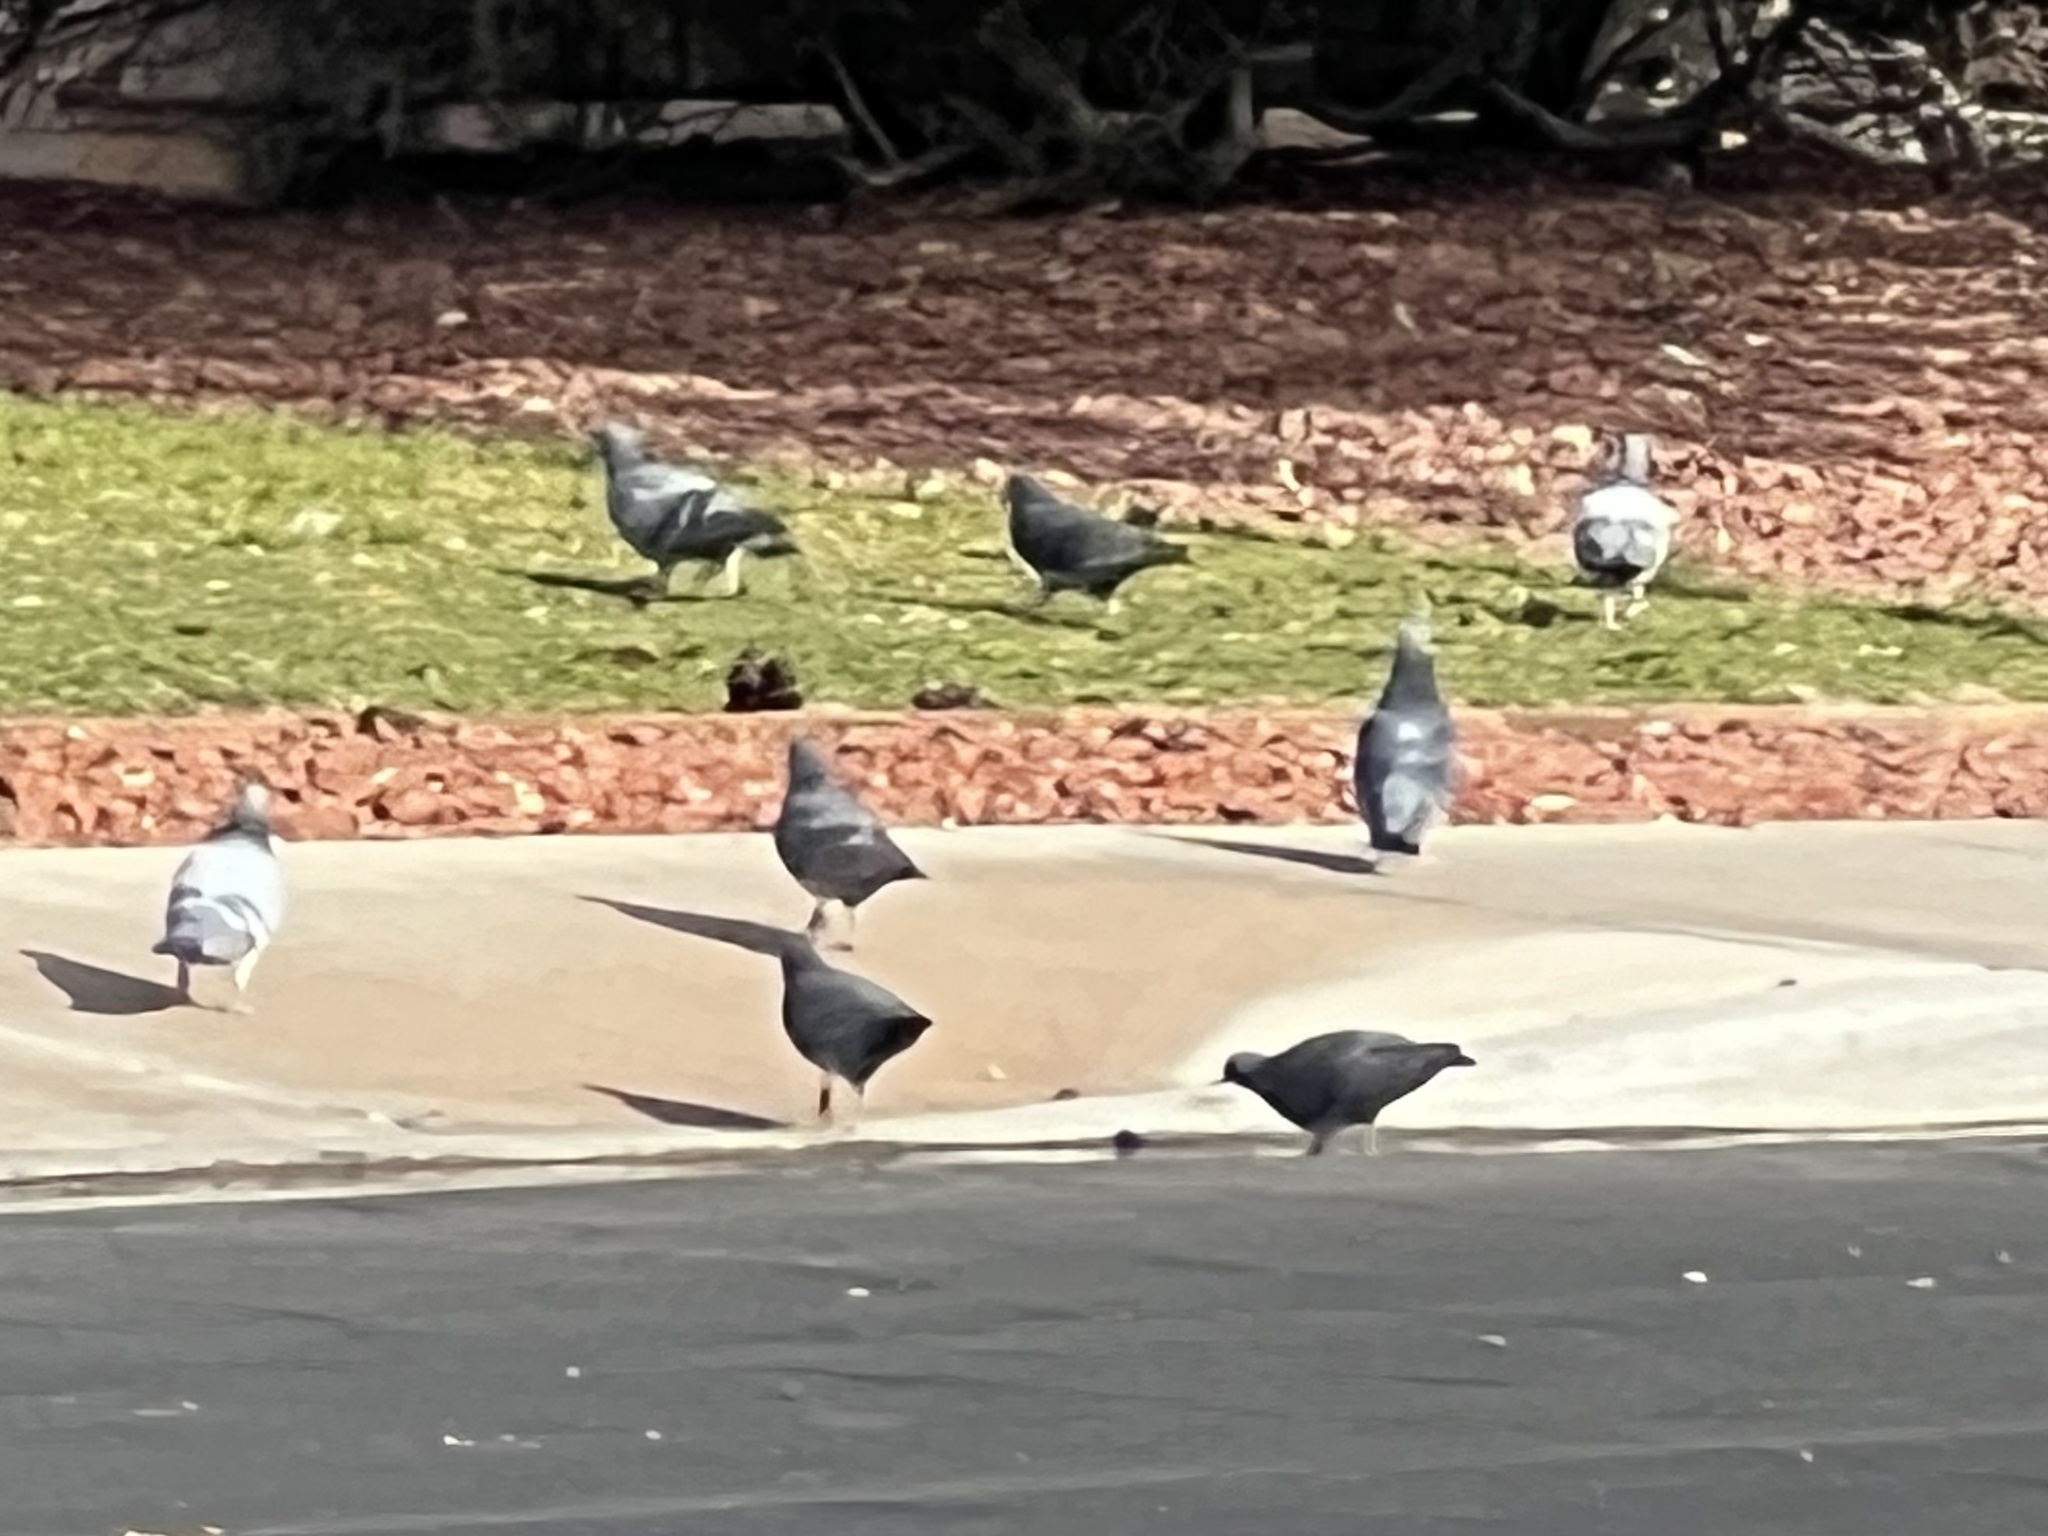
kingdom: Animalia
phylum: Chordata
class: Aves
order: Columbiformes
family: Columbidae
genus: Columba
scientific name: Columba livia
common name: Rock pigeon
